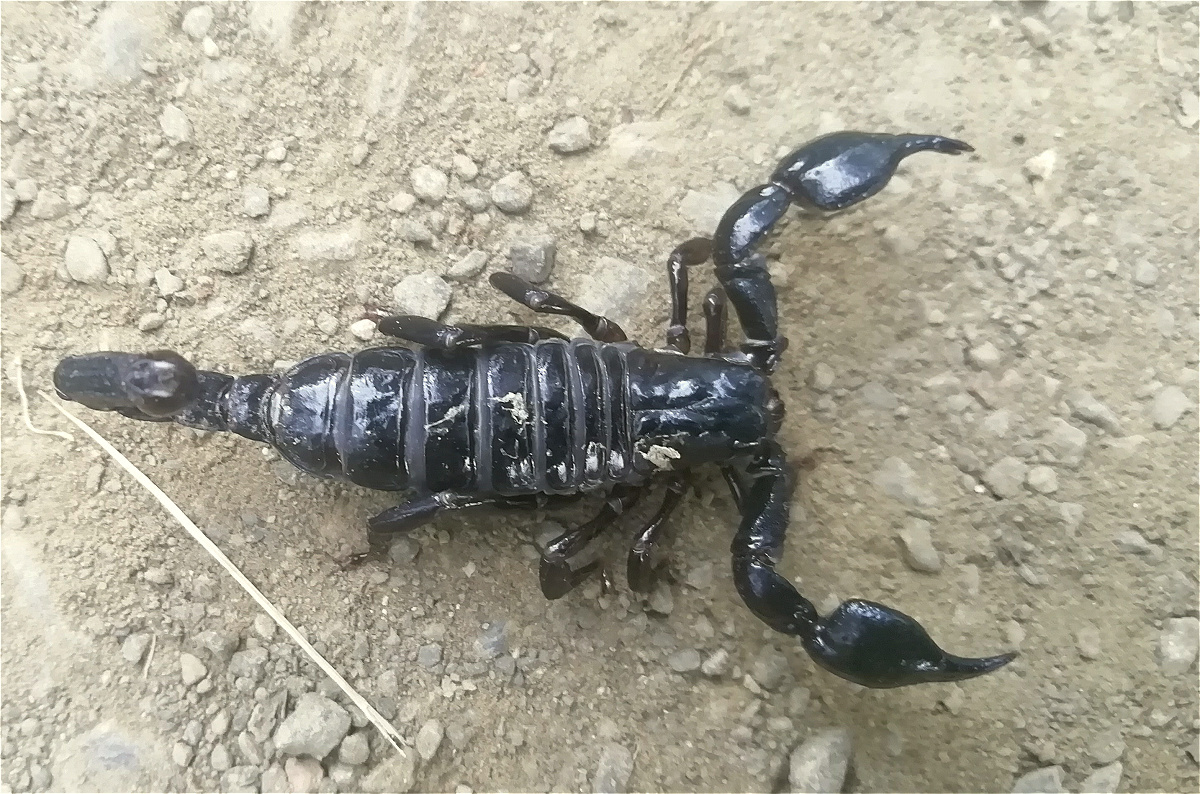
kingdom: Animalia
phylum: Arthropoda
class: Arachnida
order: Scorpiones
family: Chactidae
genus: Teuthraustes
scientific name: Teuthraustes gervaisii
